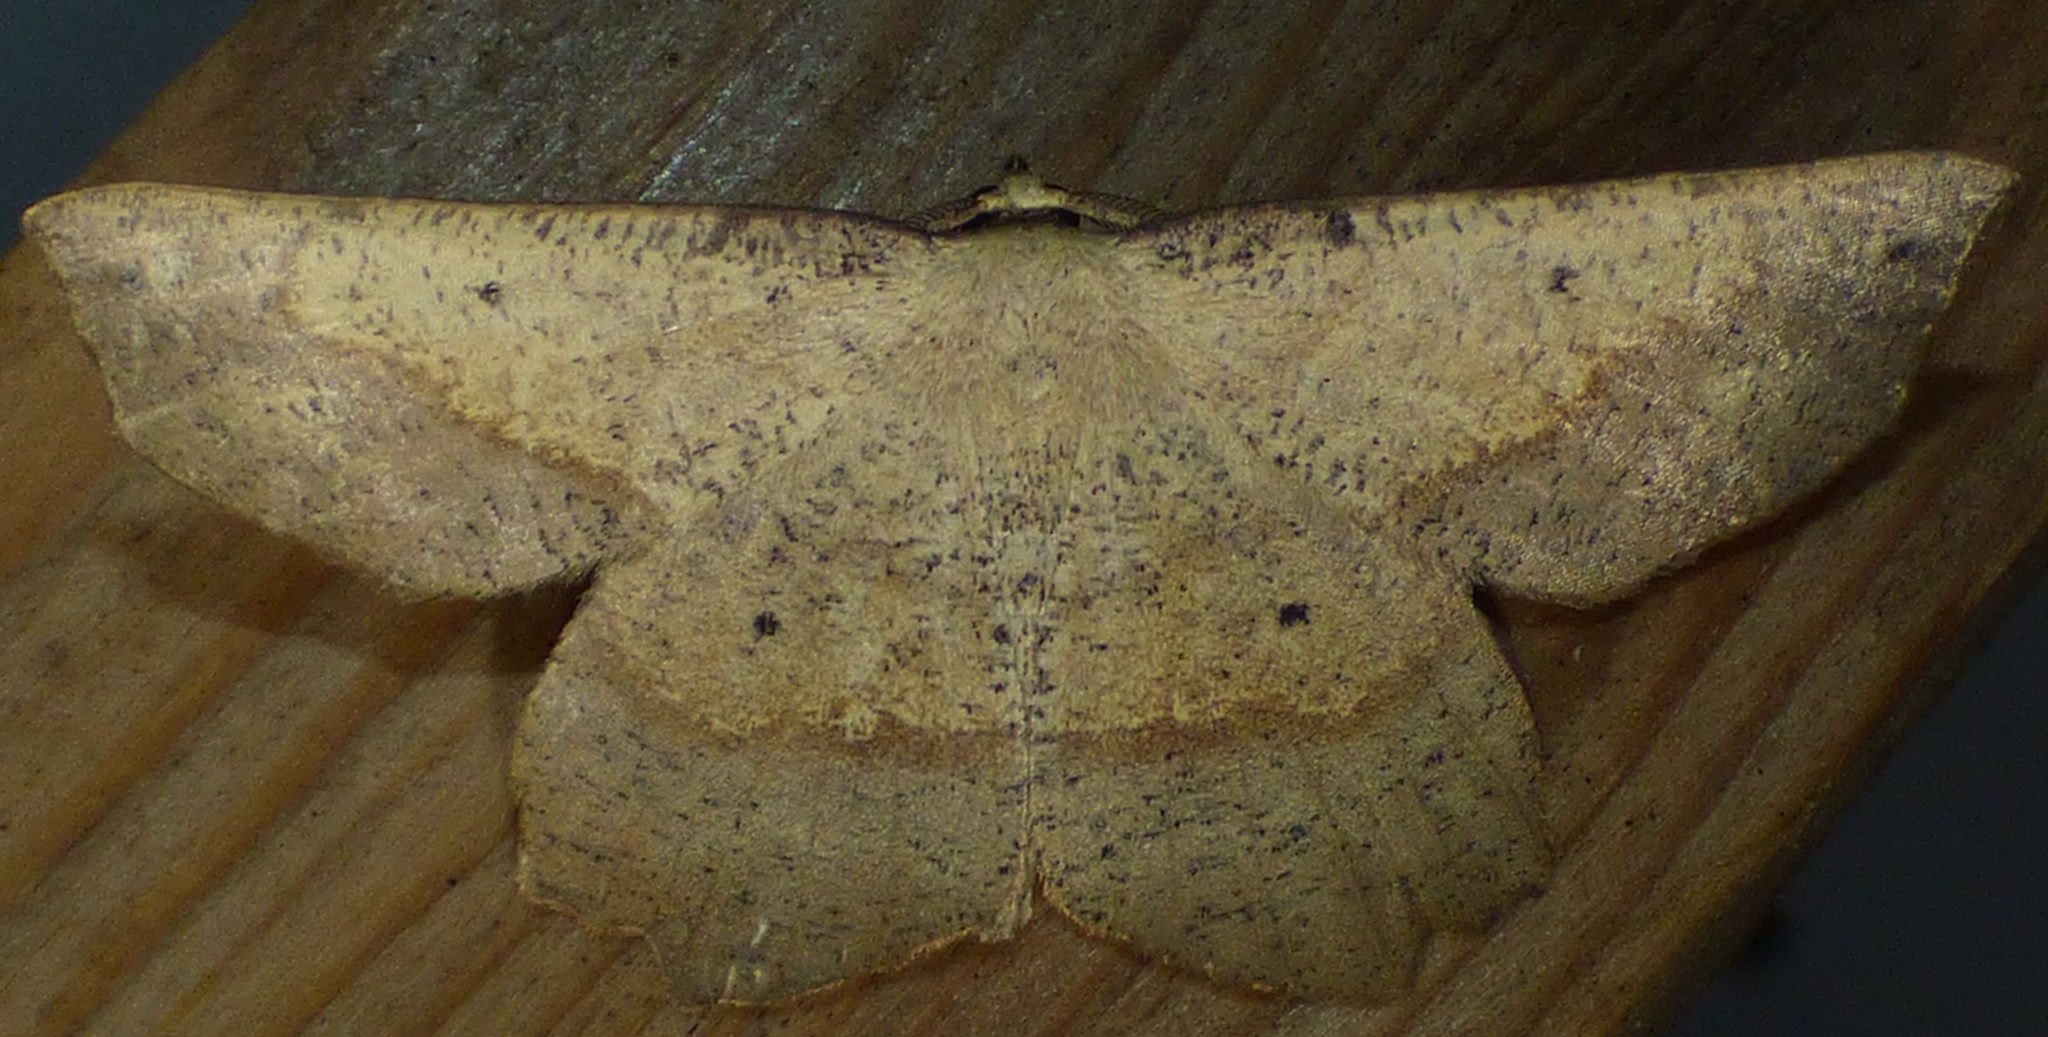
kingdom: Animalia
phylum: Arthropoda
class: Insecta
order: Lepidoptera
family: Geometridae
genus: Euchlaena
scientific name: Euchlaena amoenaria
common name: Deep yellow euchlaena
